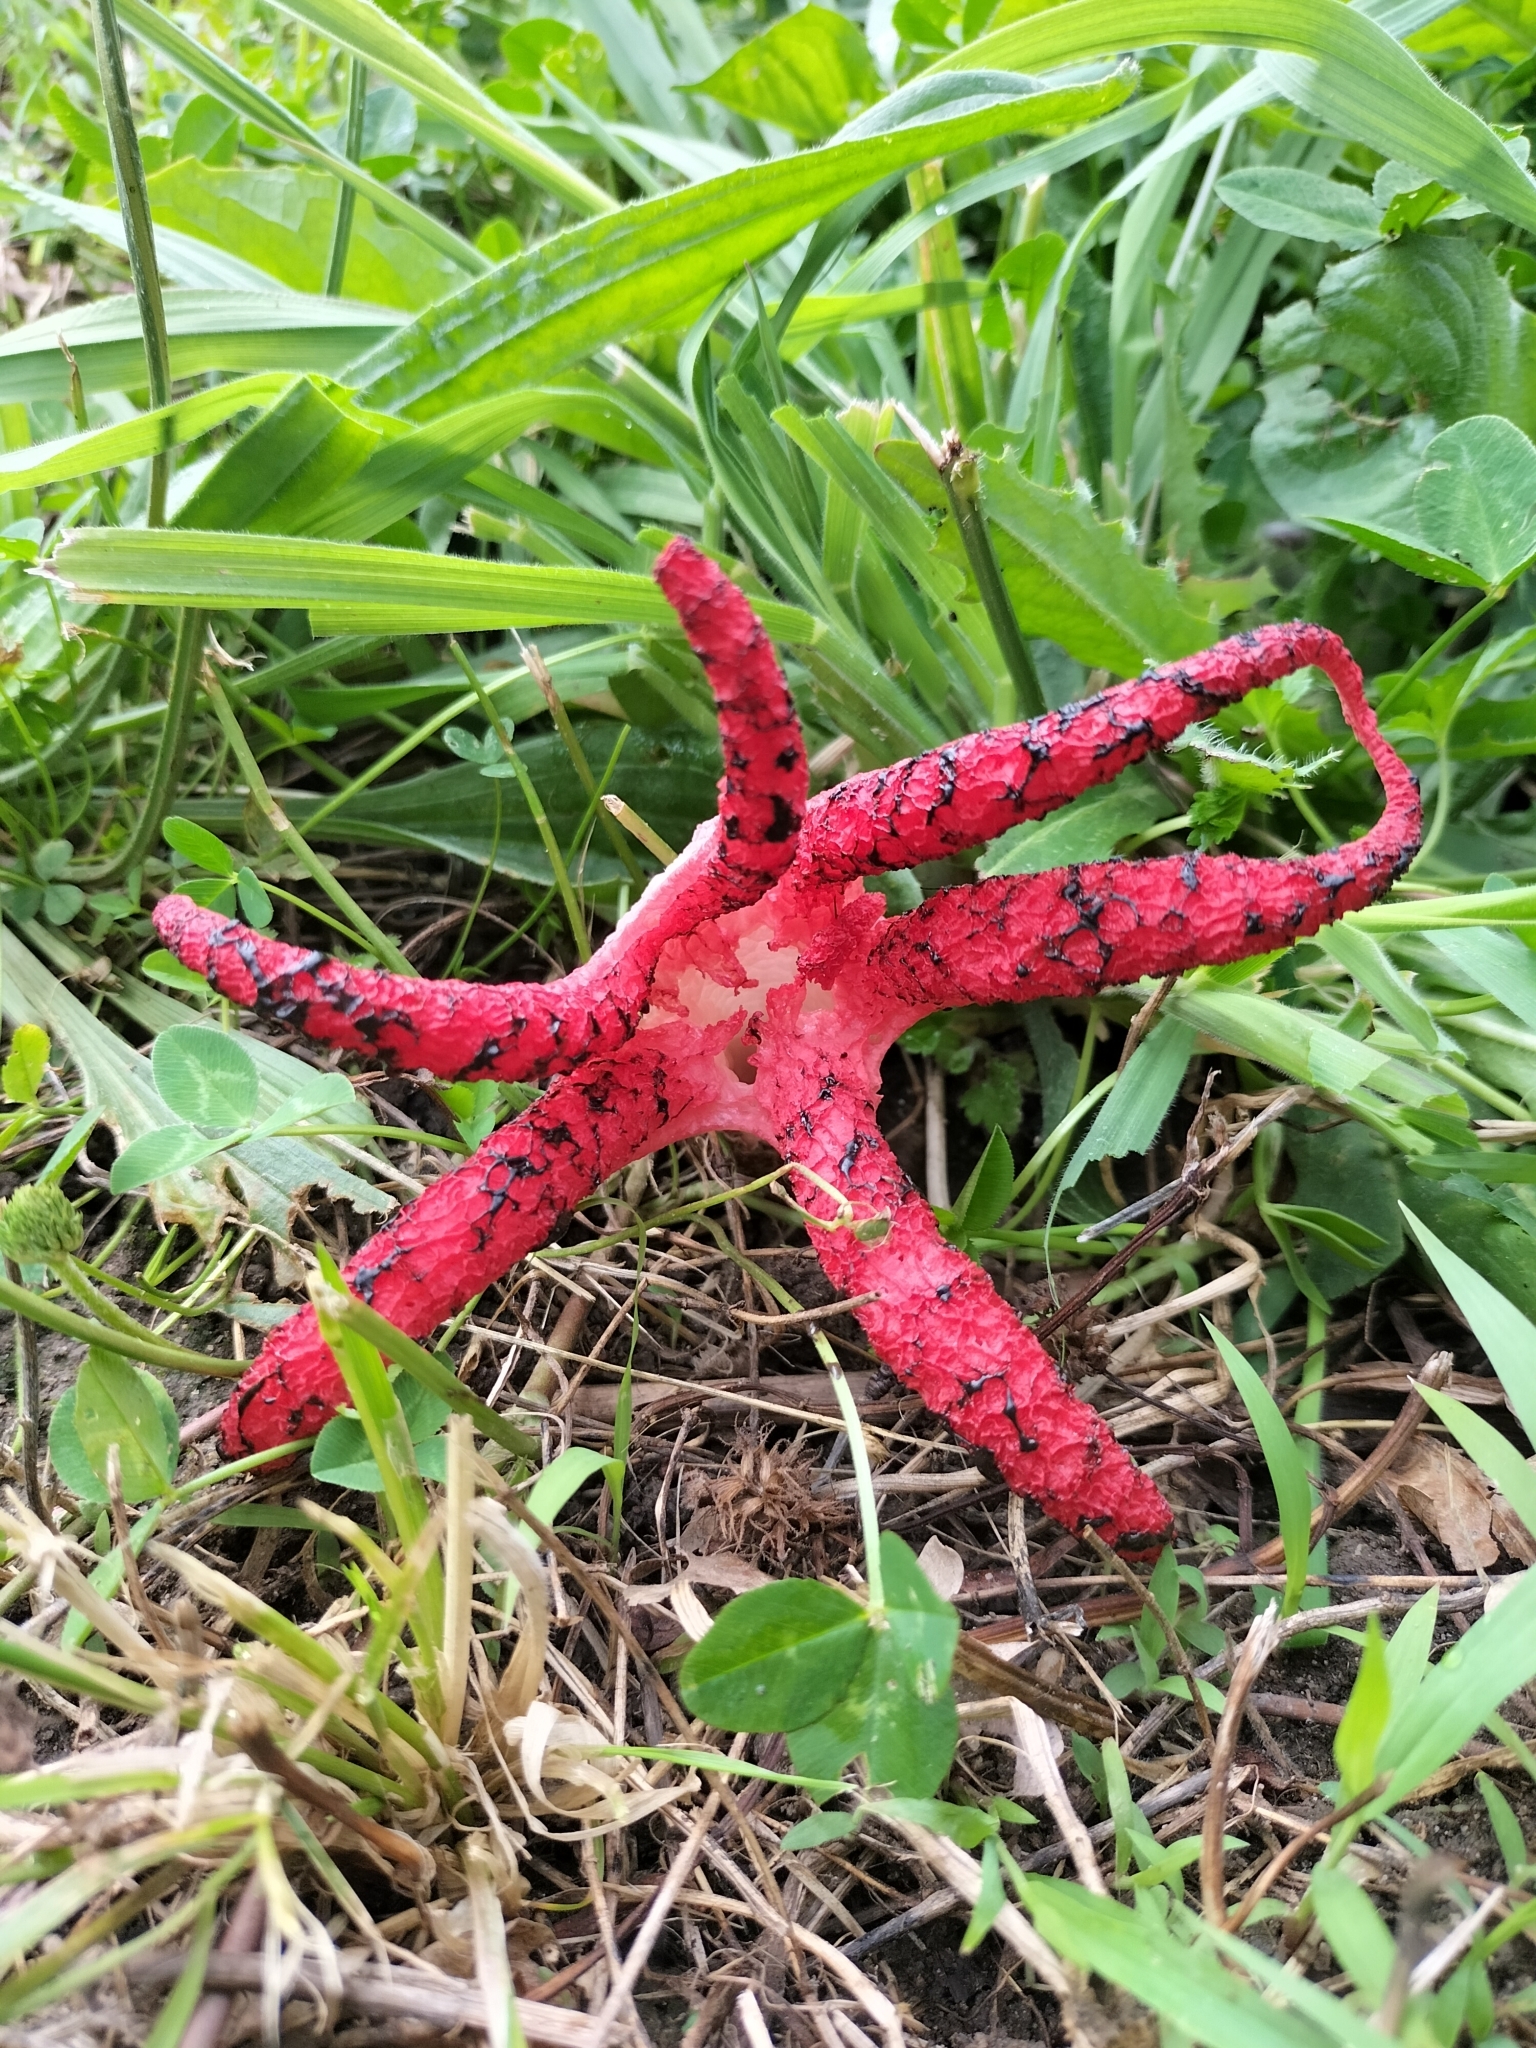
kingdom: Fungi
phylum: Basidiomycota
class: Agaricomycetes
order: Phallales
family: Phallaceae
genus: Clathrus
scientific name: Clathrus archeri
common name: Devil's fingers
